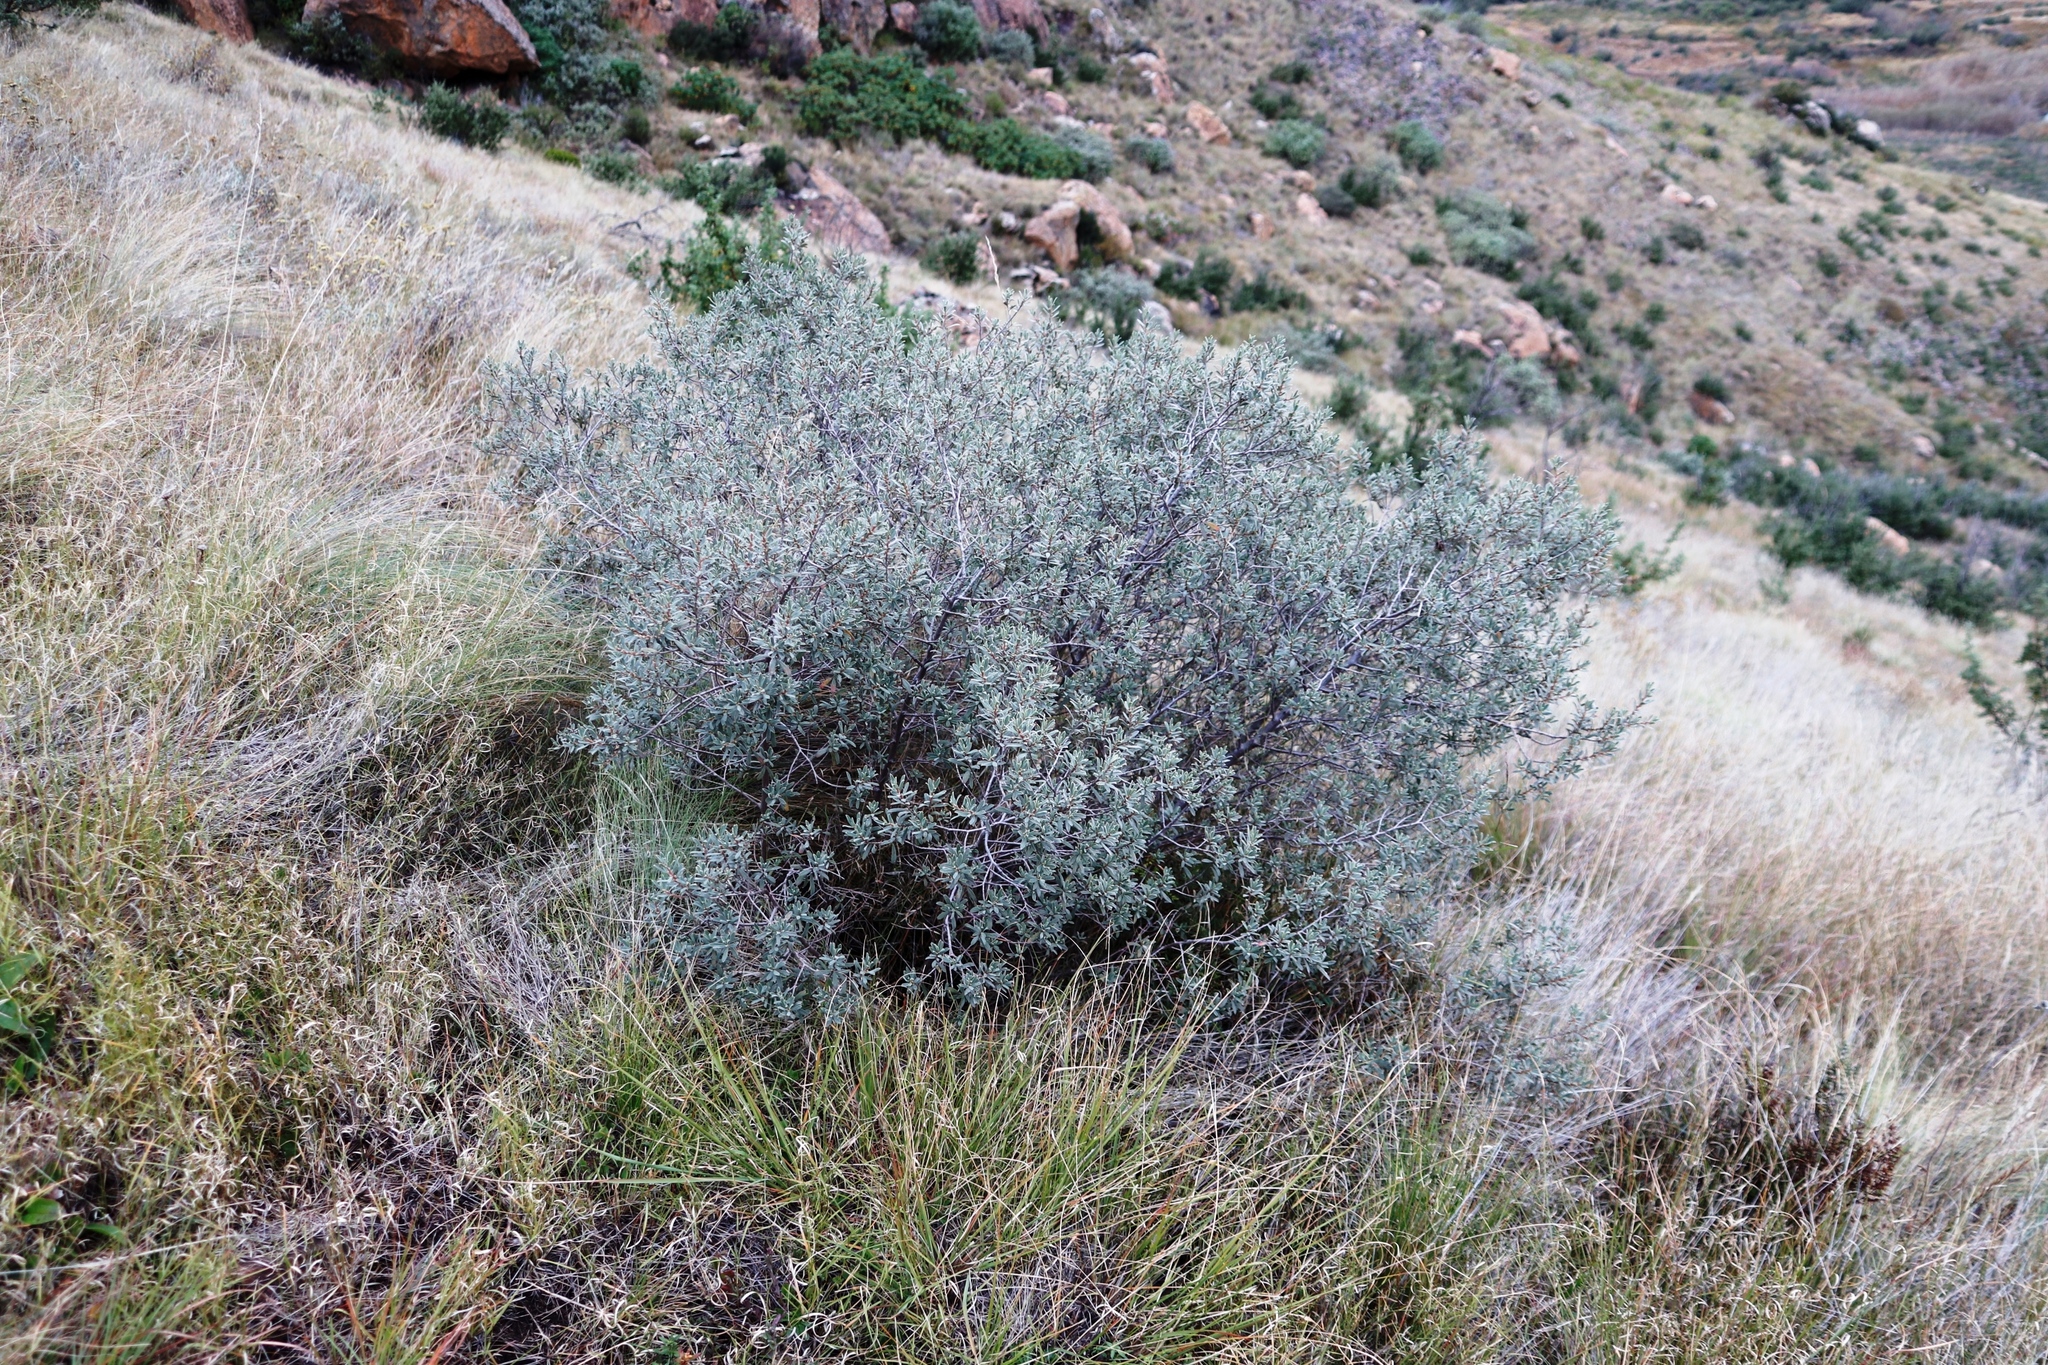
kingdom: Plantae
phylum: Tracheophyta
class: Magnoliopsida
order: Ericales
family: Ebenaceae
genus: Diospyros
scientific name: Diospyros pubescens
